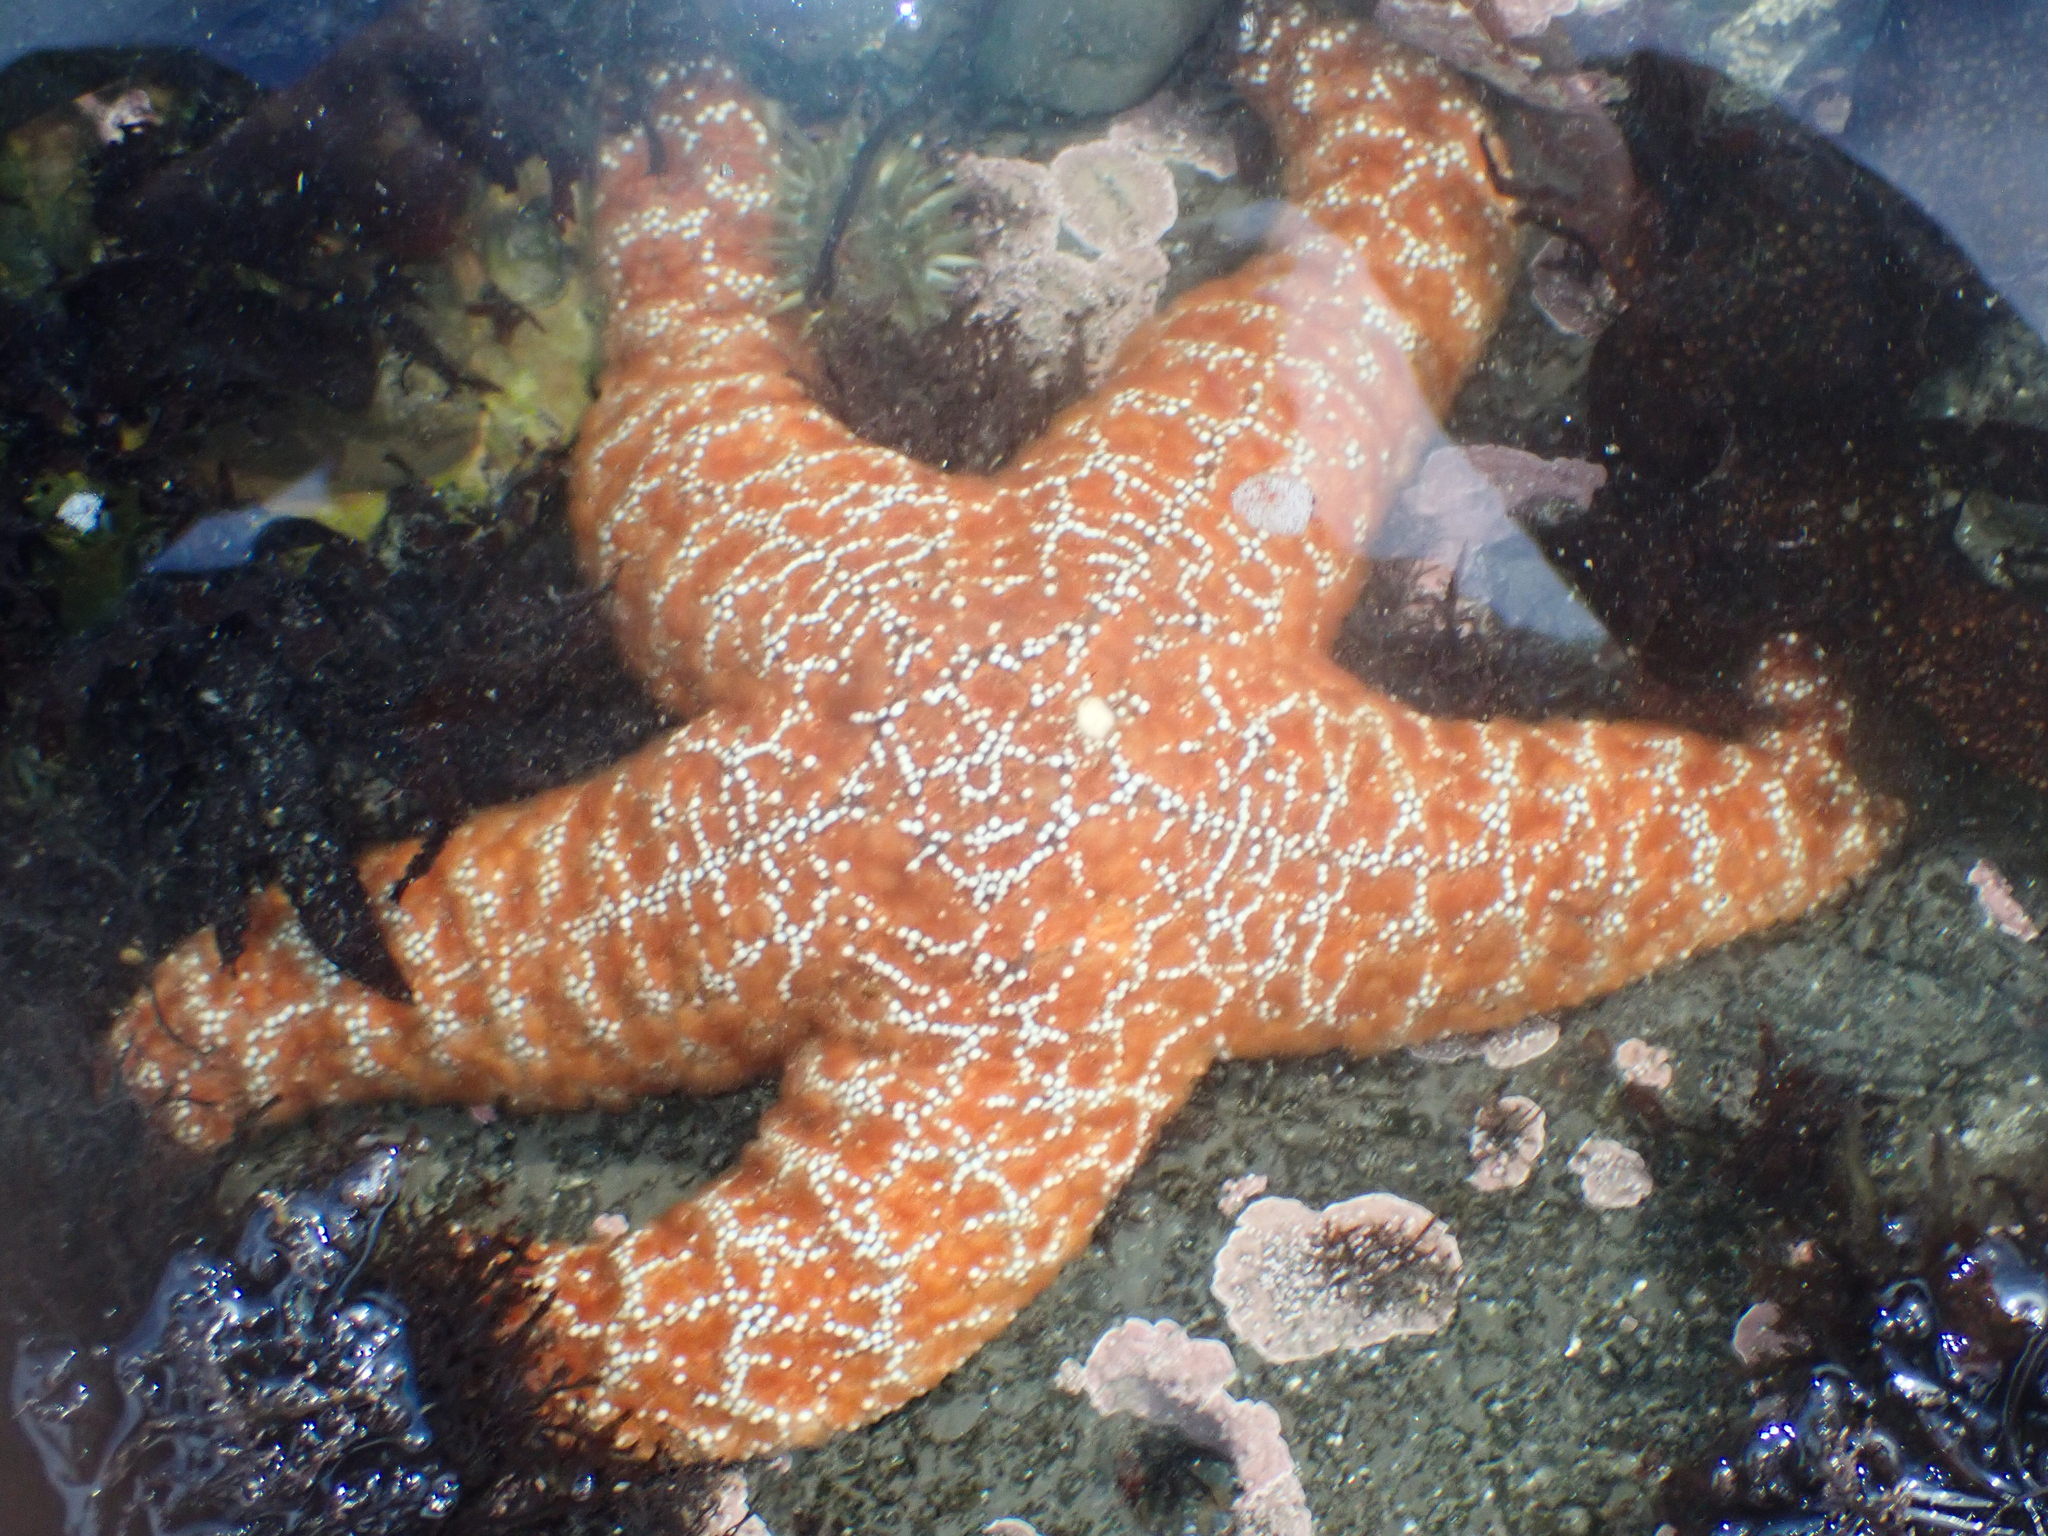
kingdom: Animalia
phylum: Echinodermata
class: Asteroidea
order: Forcipulatida
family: Asteriidae
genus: Pisaster
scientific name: Pisaster ochraceus
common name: Ochre stars
